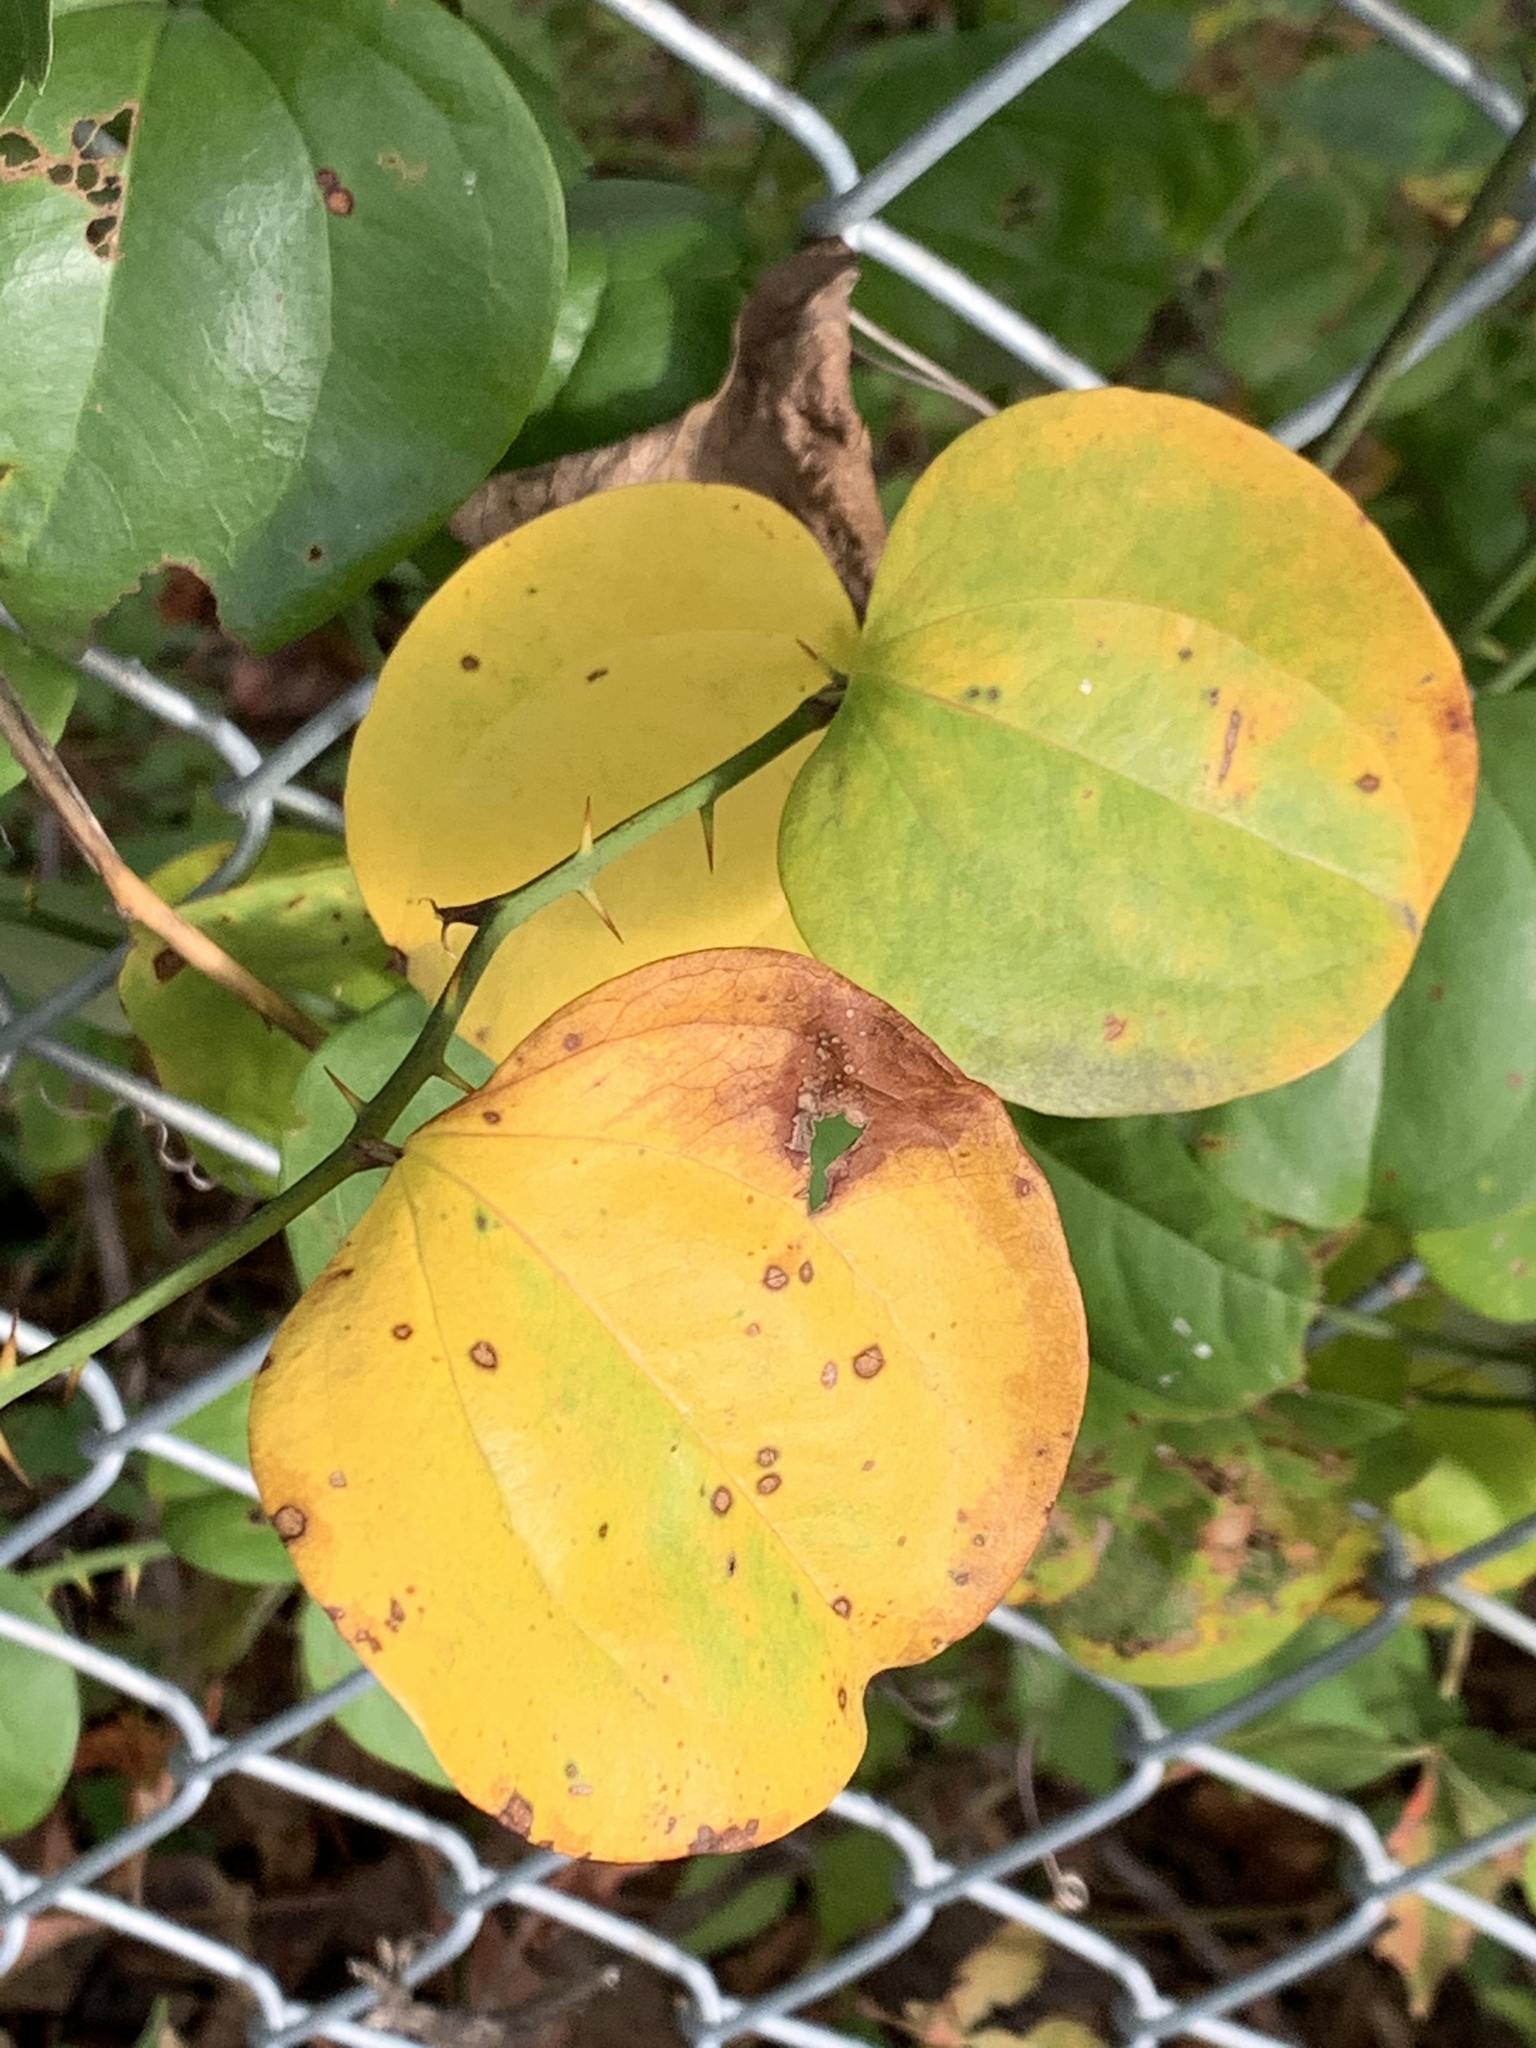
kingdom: Plantae
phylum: Tracheophyta
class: Liliopsida
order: Liliales
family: Smilacaceae
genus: Smilax
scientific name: Smilax rotundifolia
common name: Bullbriar
